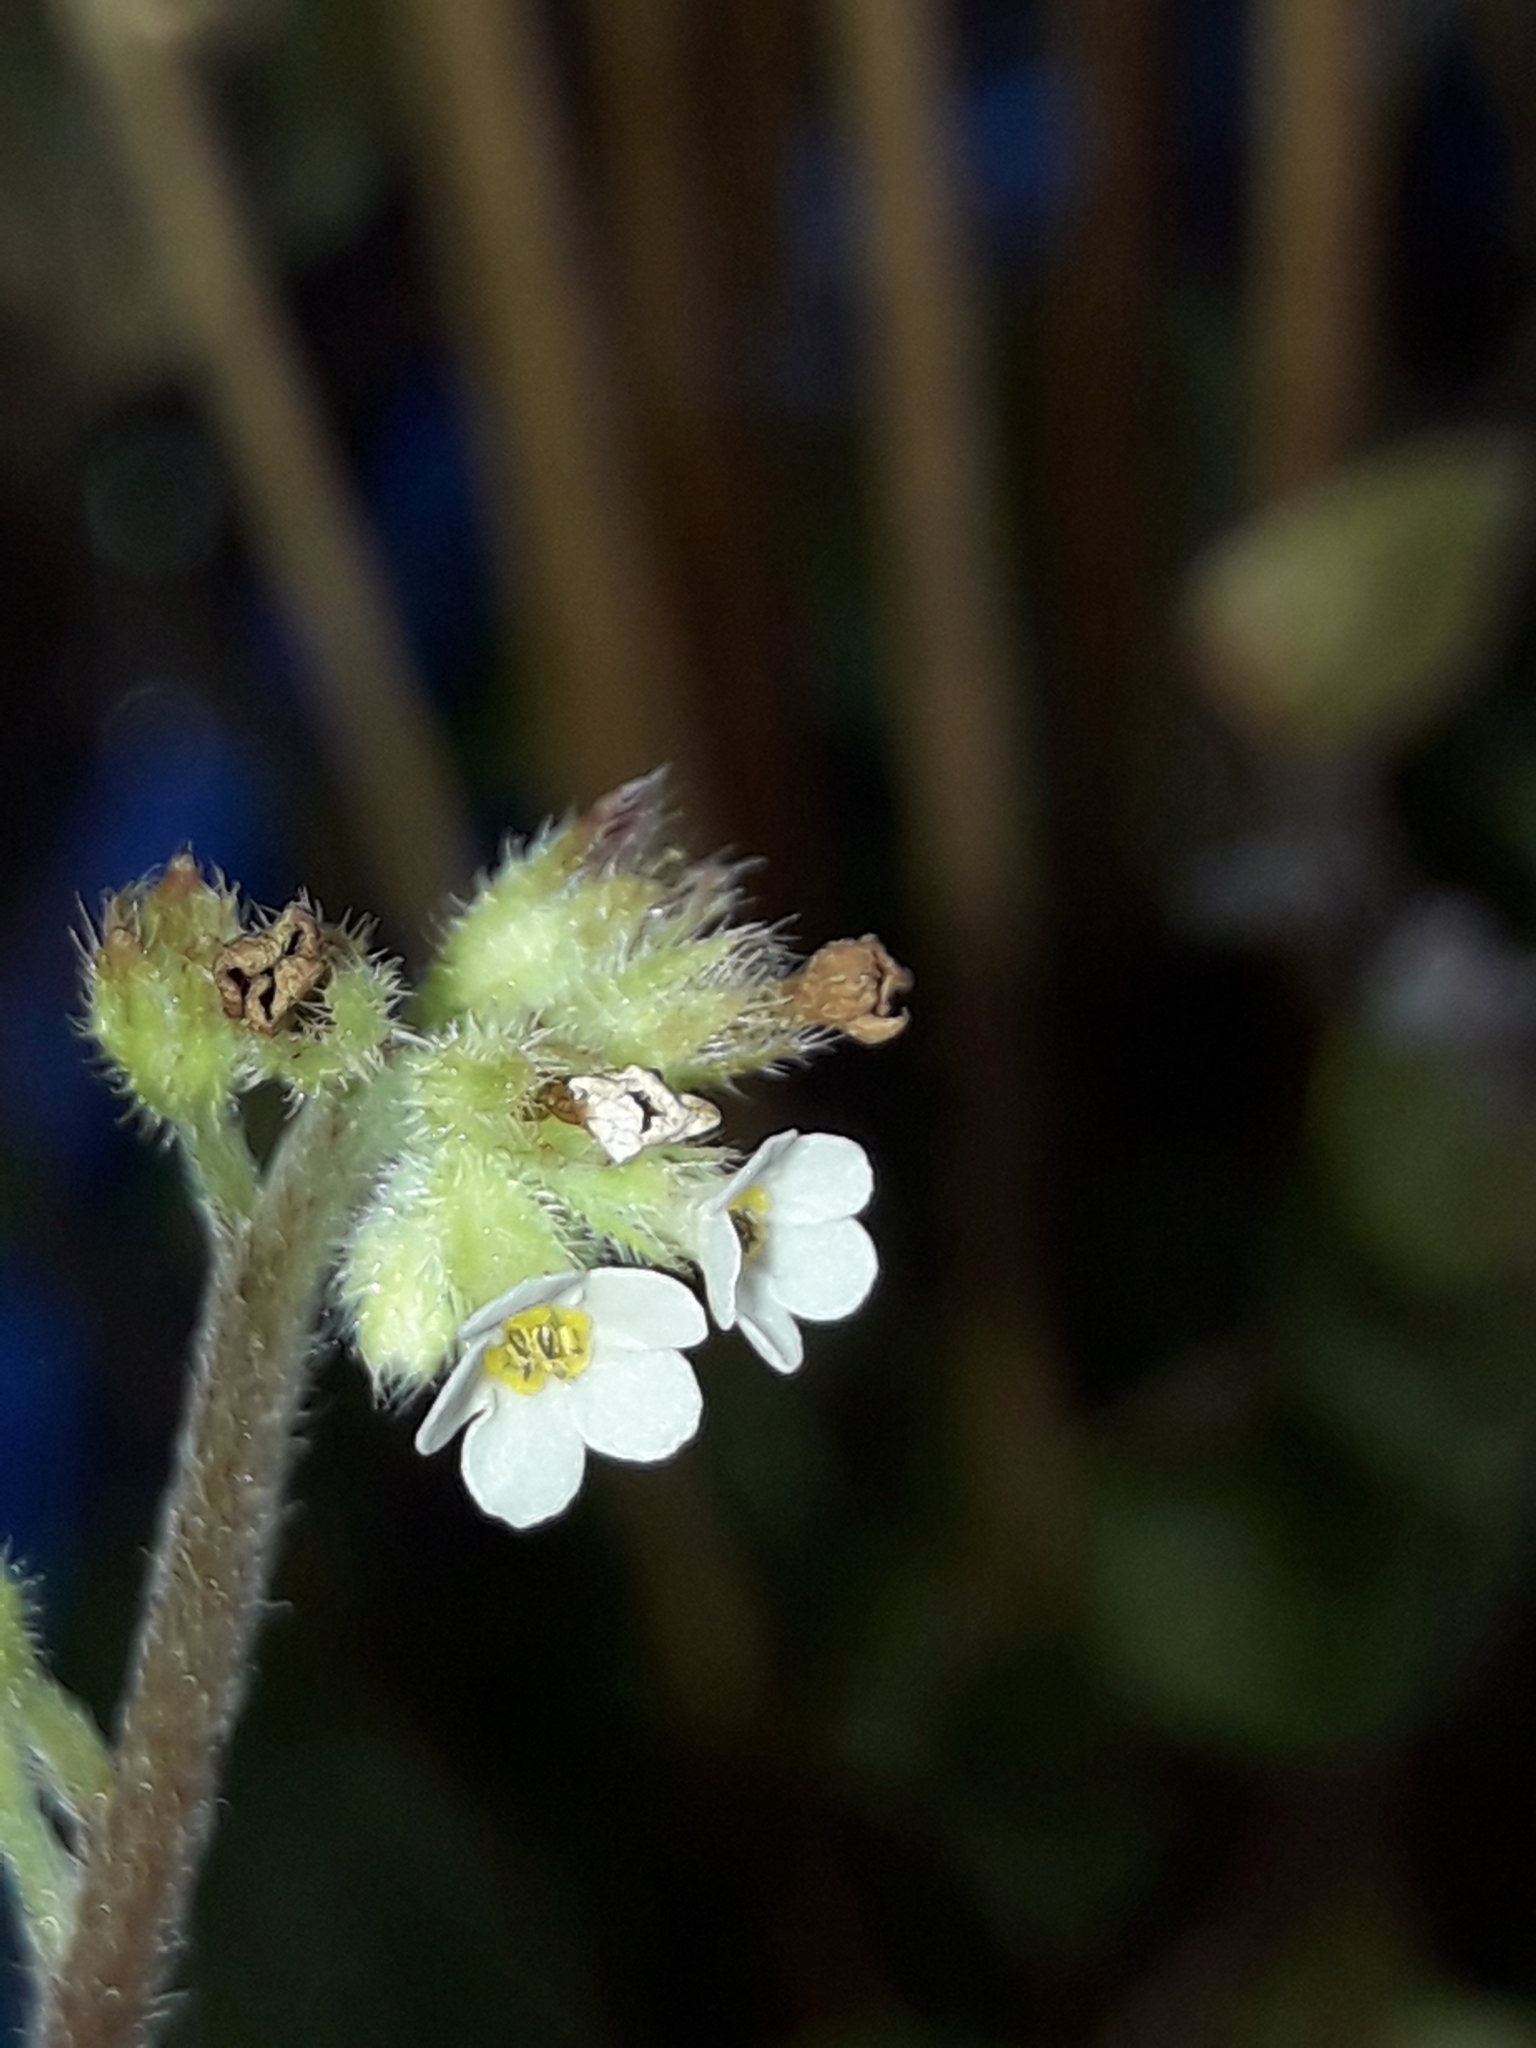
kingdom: Plantae
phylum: Tracheophyta
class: Magnoliopsida
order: Boraginales
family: Boraginaceae
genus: Myosotis
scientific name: Myosotis forsteri
